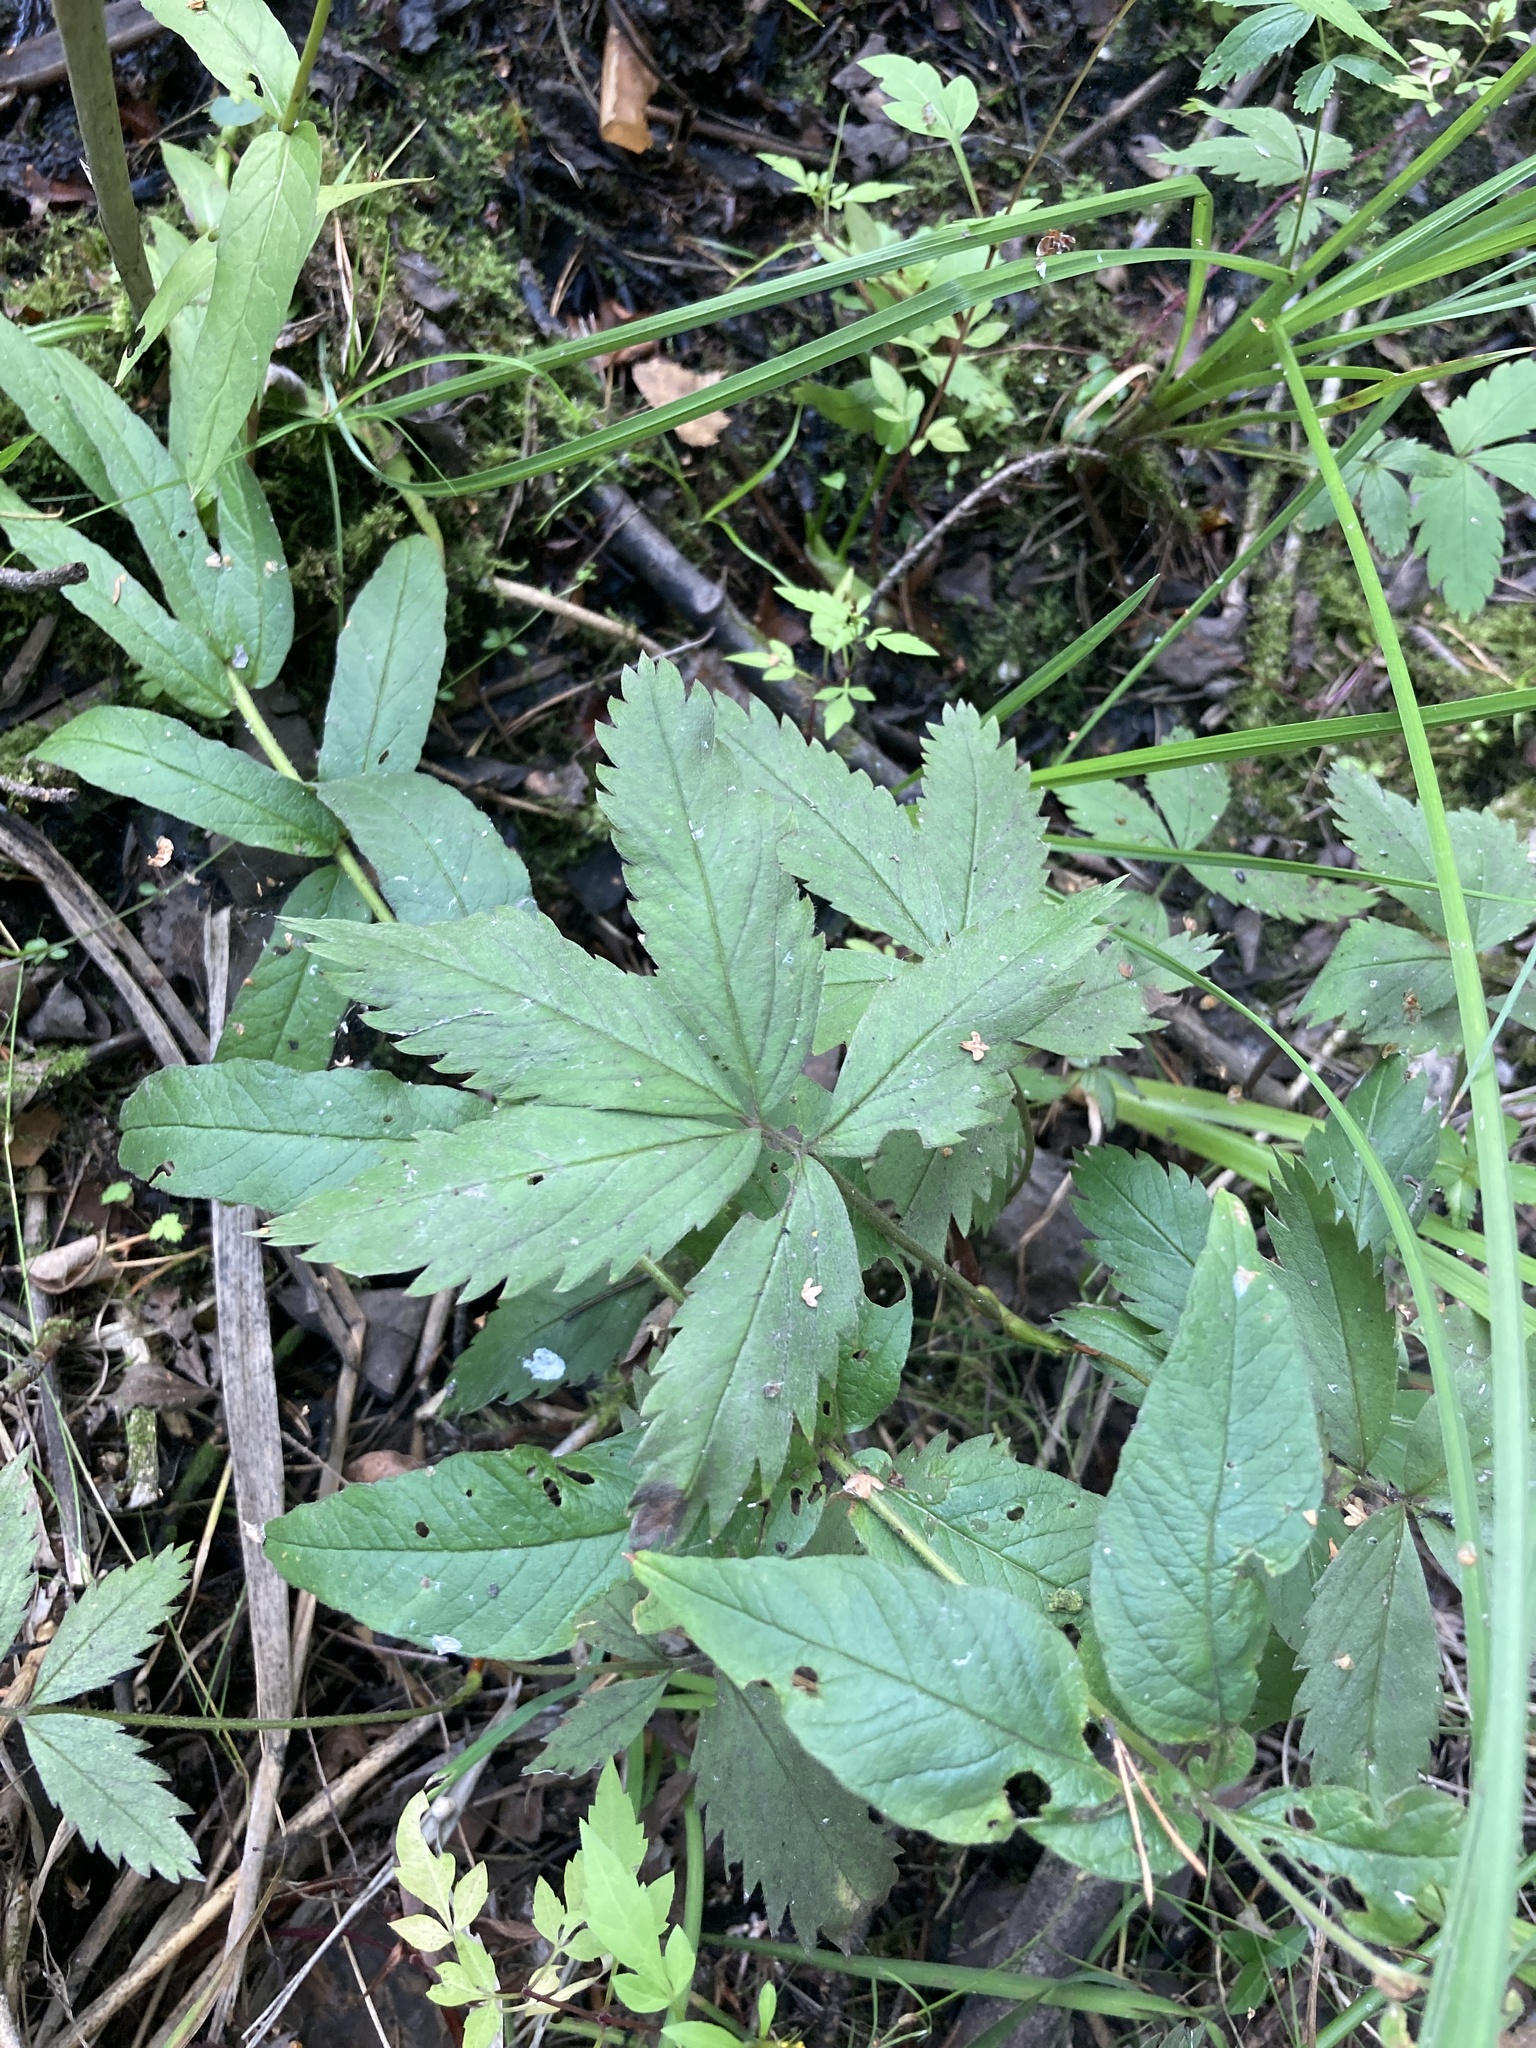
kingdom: Plantae
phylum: Tracheophyta
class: Magnoliopsida
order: Rosales
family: Rosaceae
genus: Comarum
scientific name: Comarum palustre
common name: Marsh cinquefoil
